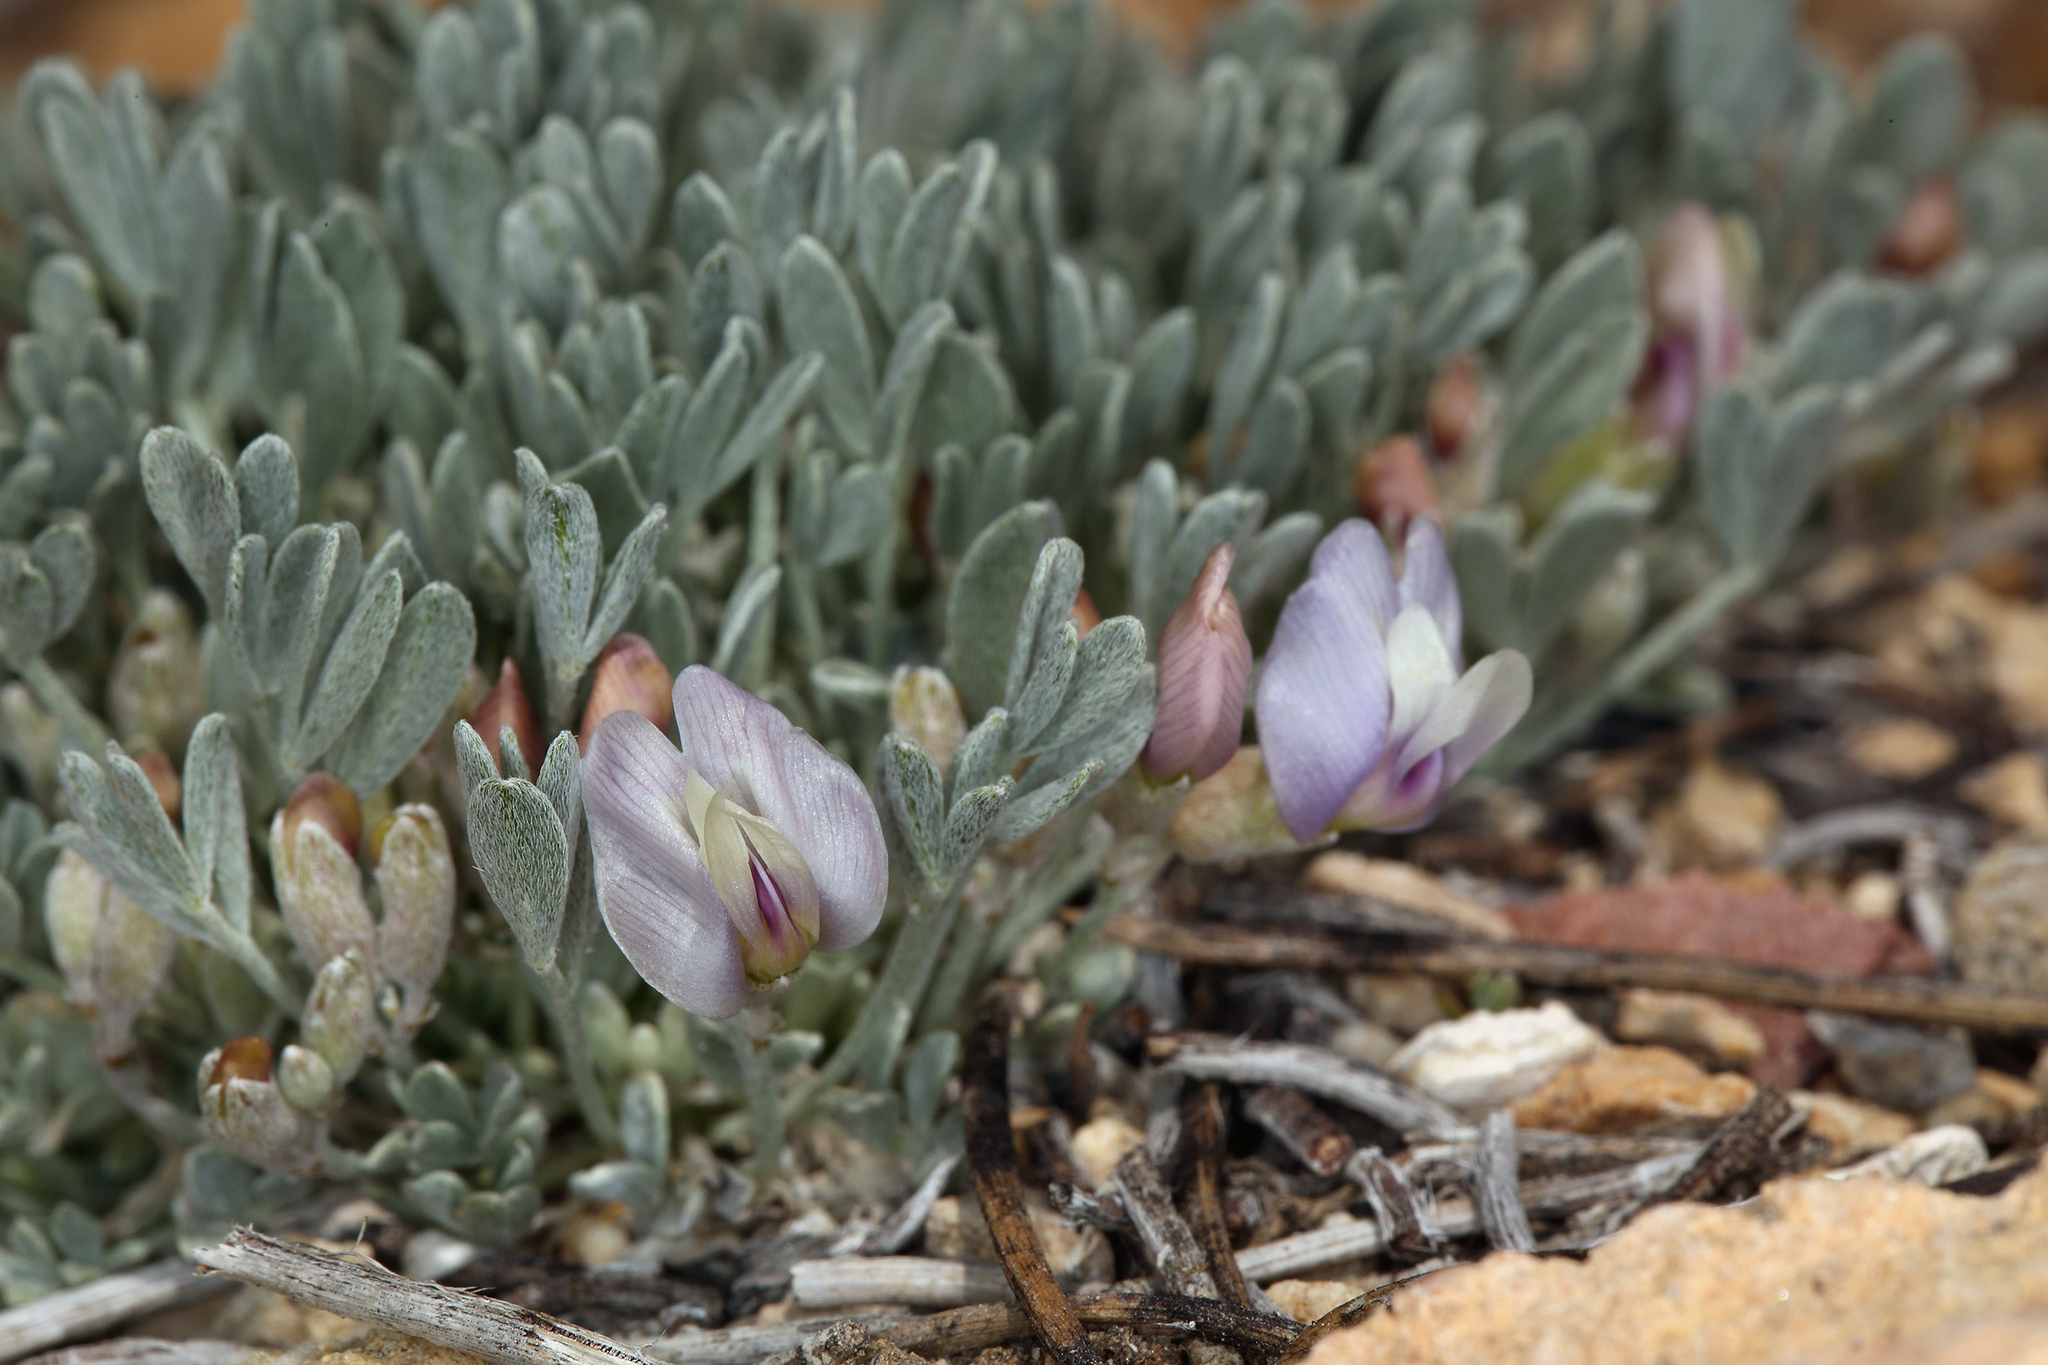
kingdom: Plantae
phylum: Tracheophyta
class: Magnoliopsida
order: Fabales
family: Fabaceae
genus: Astragalus
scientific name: Astragalus calycosus
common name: King's milkvetch
